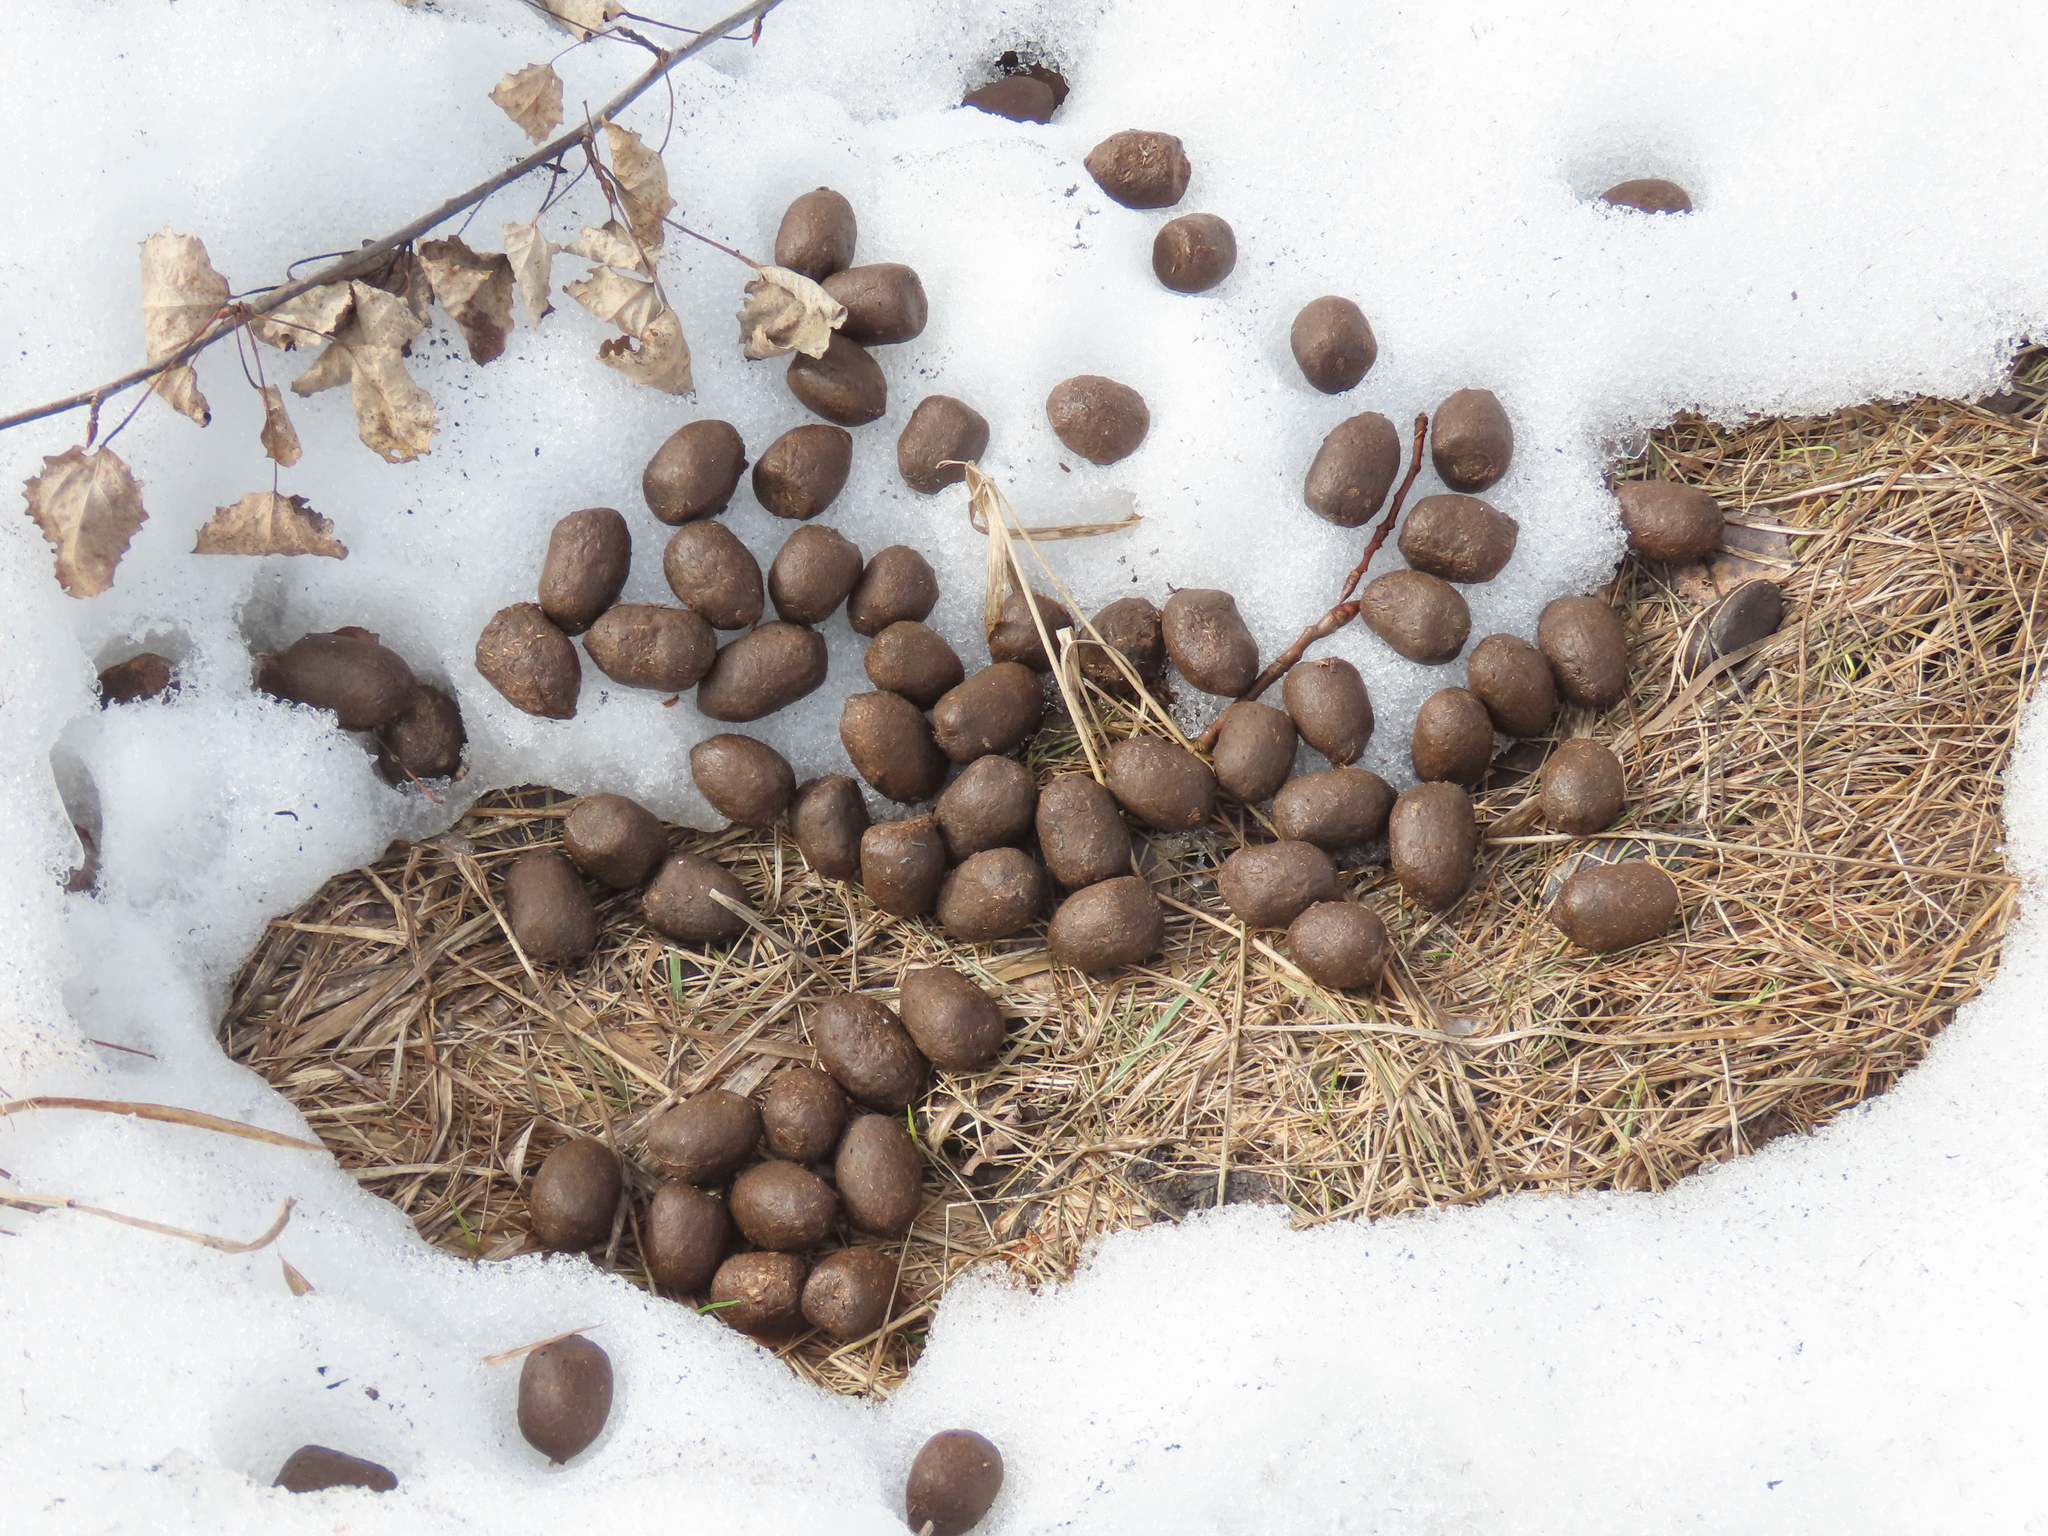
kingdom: Animalia
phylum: Chordata
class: Mammalia
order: Artiodactyla
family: Cervidae
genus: Alces
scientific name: Alces alces
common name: Moose
